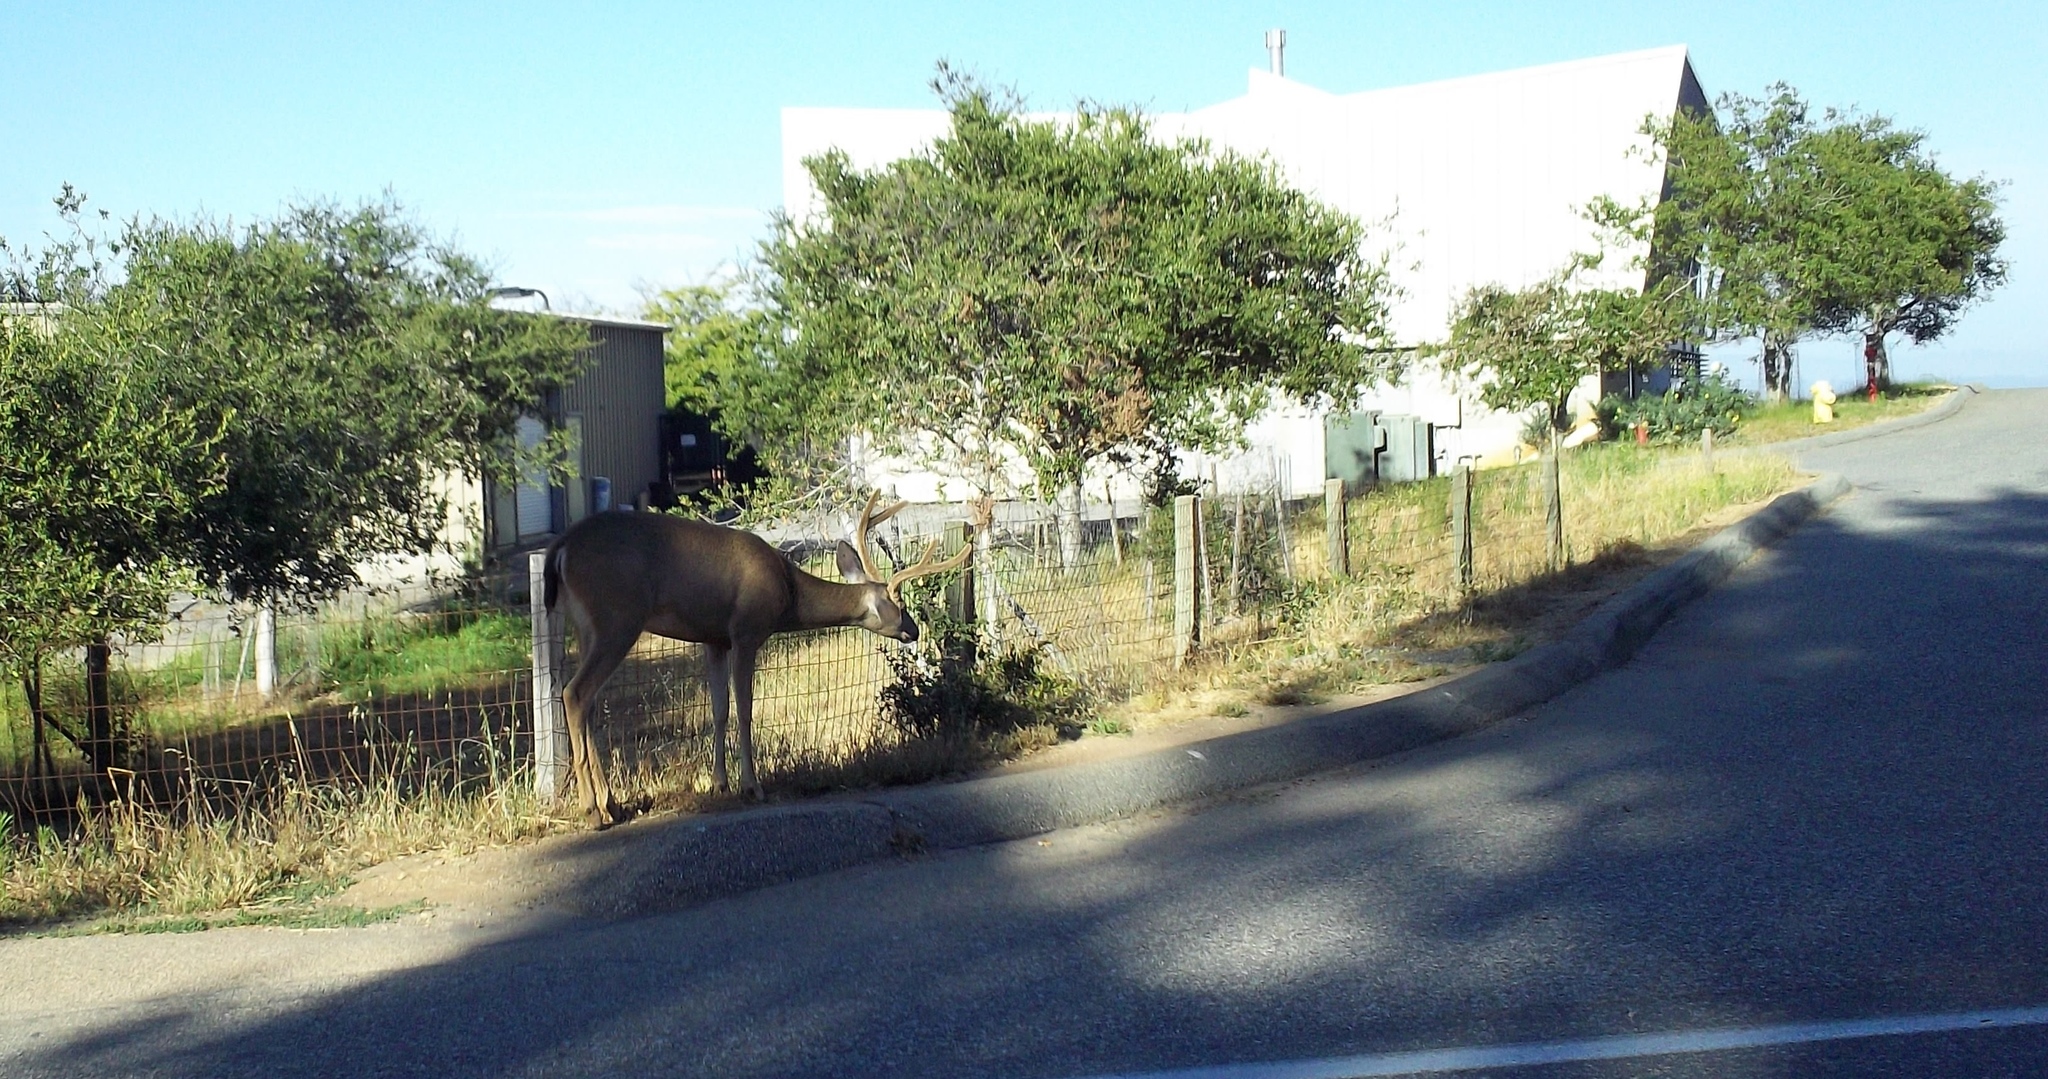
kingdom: Animalia
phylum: Chordata
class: Mammalia
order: Artiodactyla
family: Cervidae
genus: Odocoileus
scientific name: Odocoileus hemionus
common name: Mule deer
